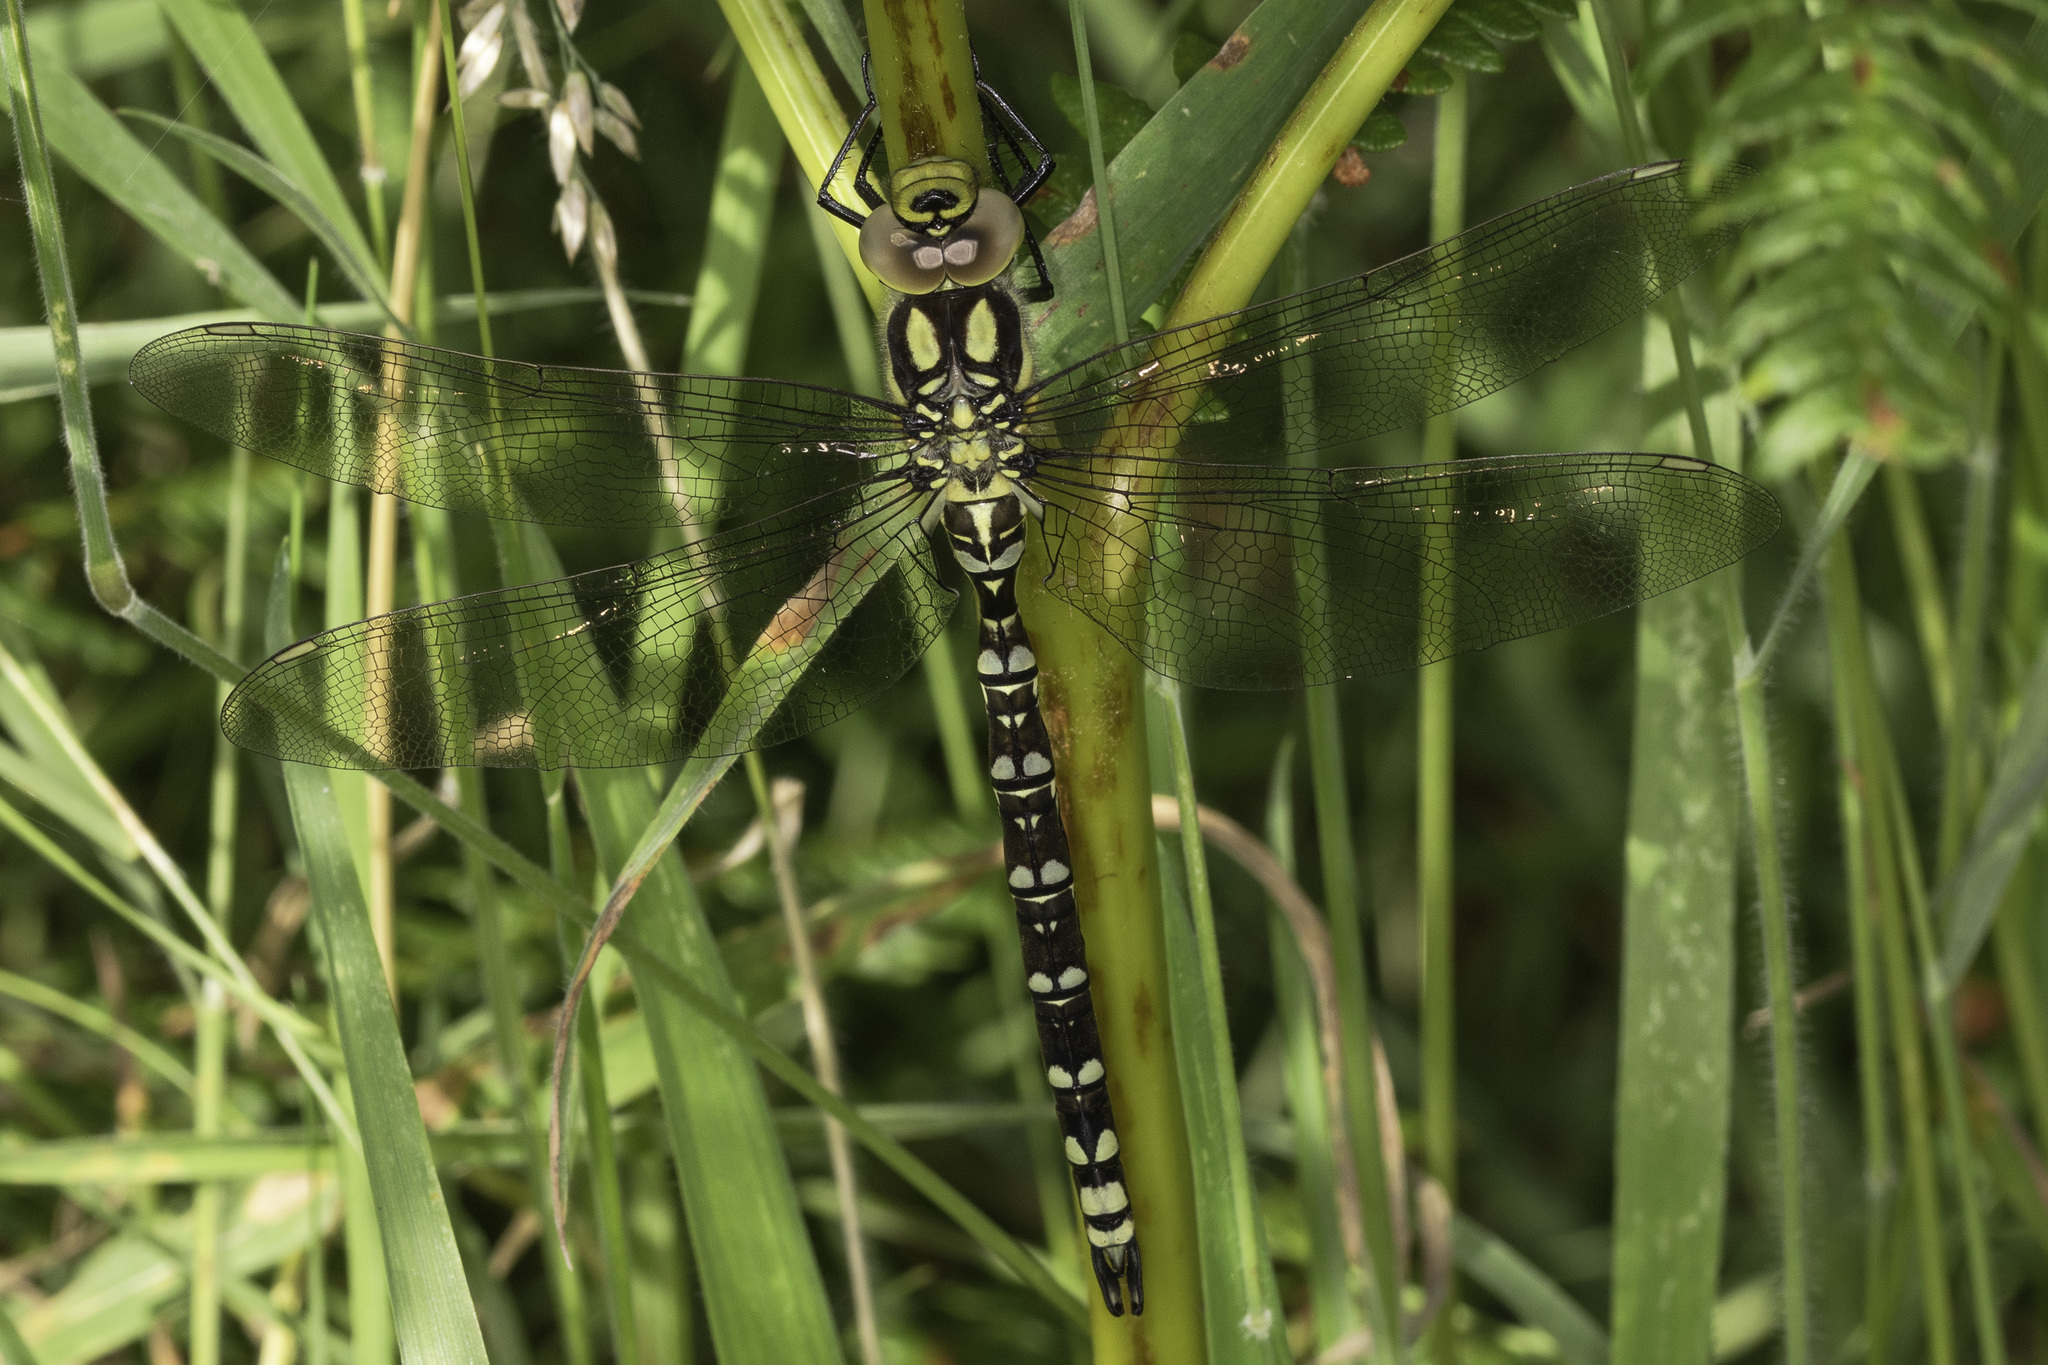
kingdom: Animalia
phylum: Arthropoda
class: Insecta
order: Odonata
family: Aeshnidae
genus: Aeshna
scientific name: Aeshna cyanea
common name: Southern hawker
